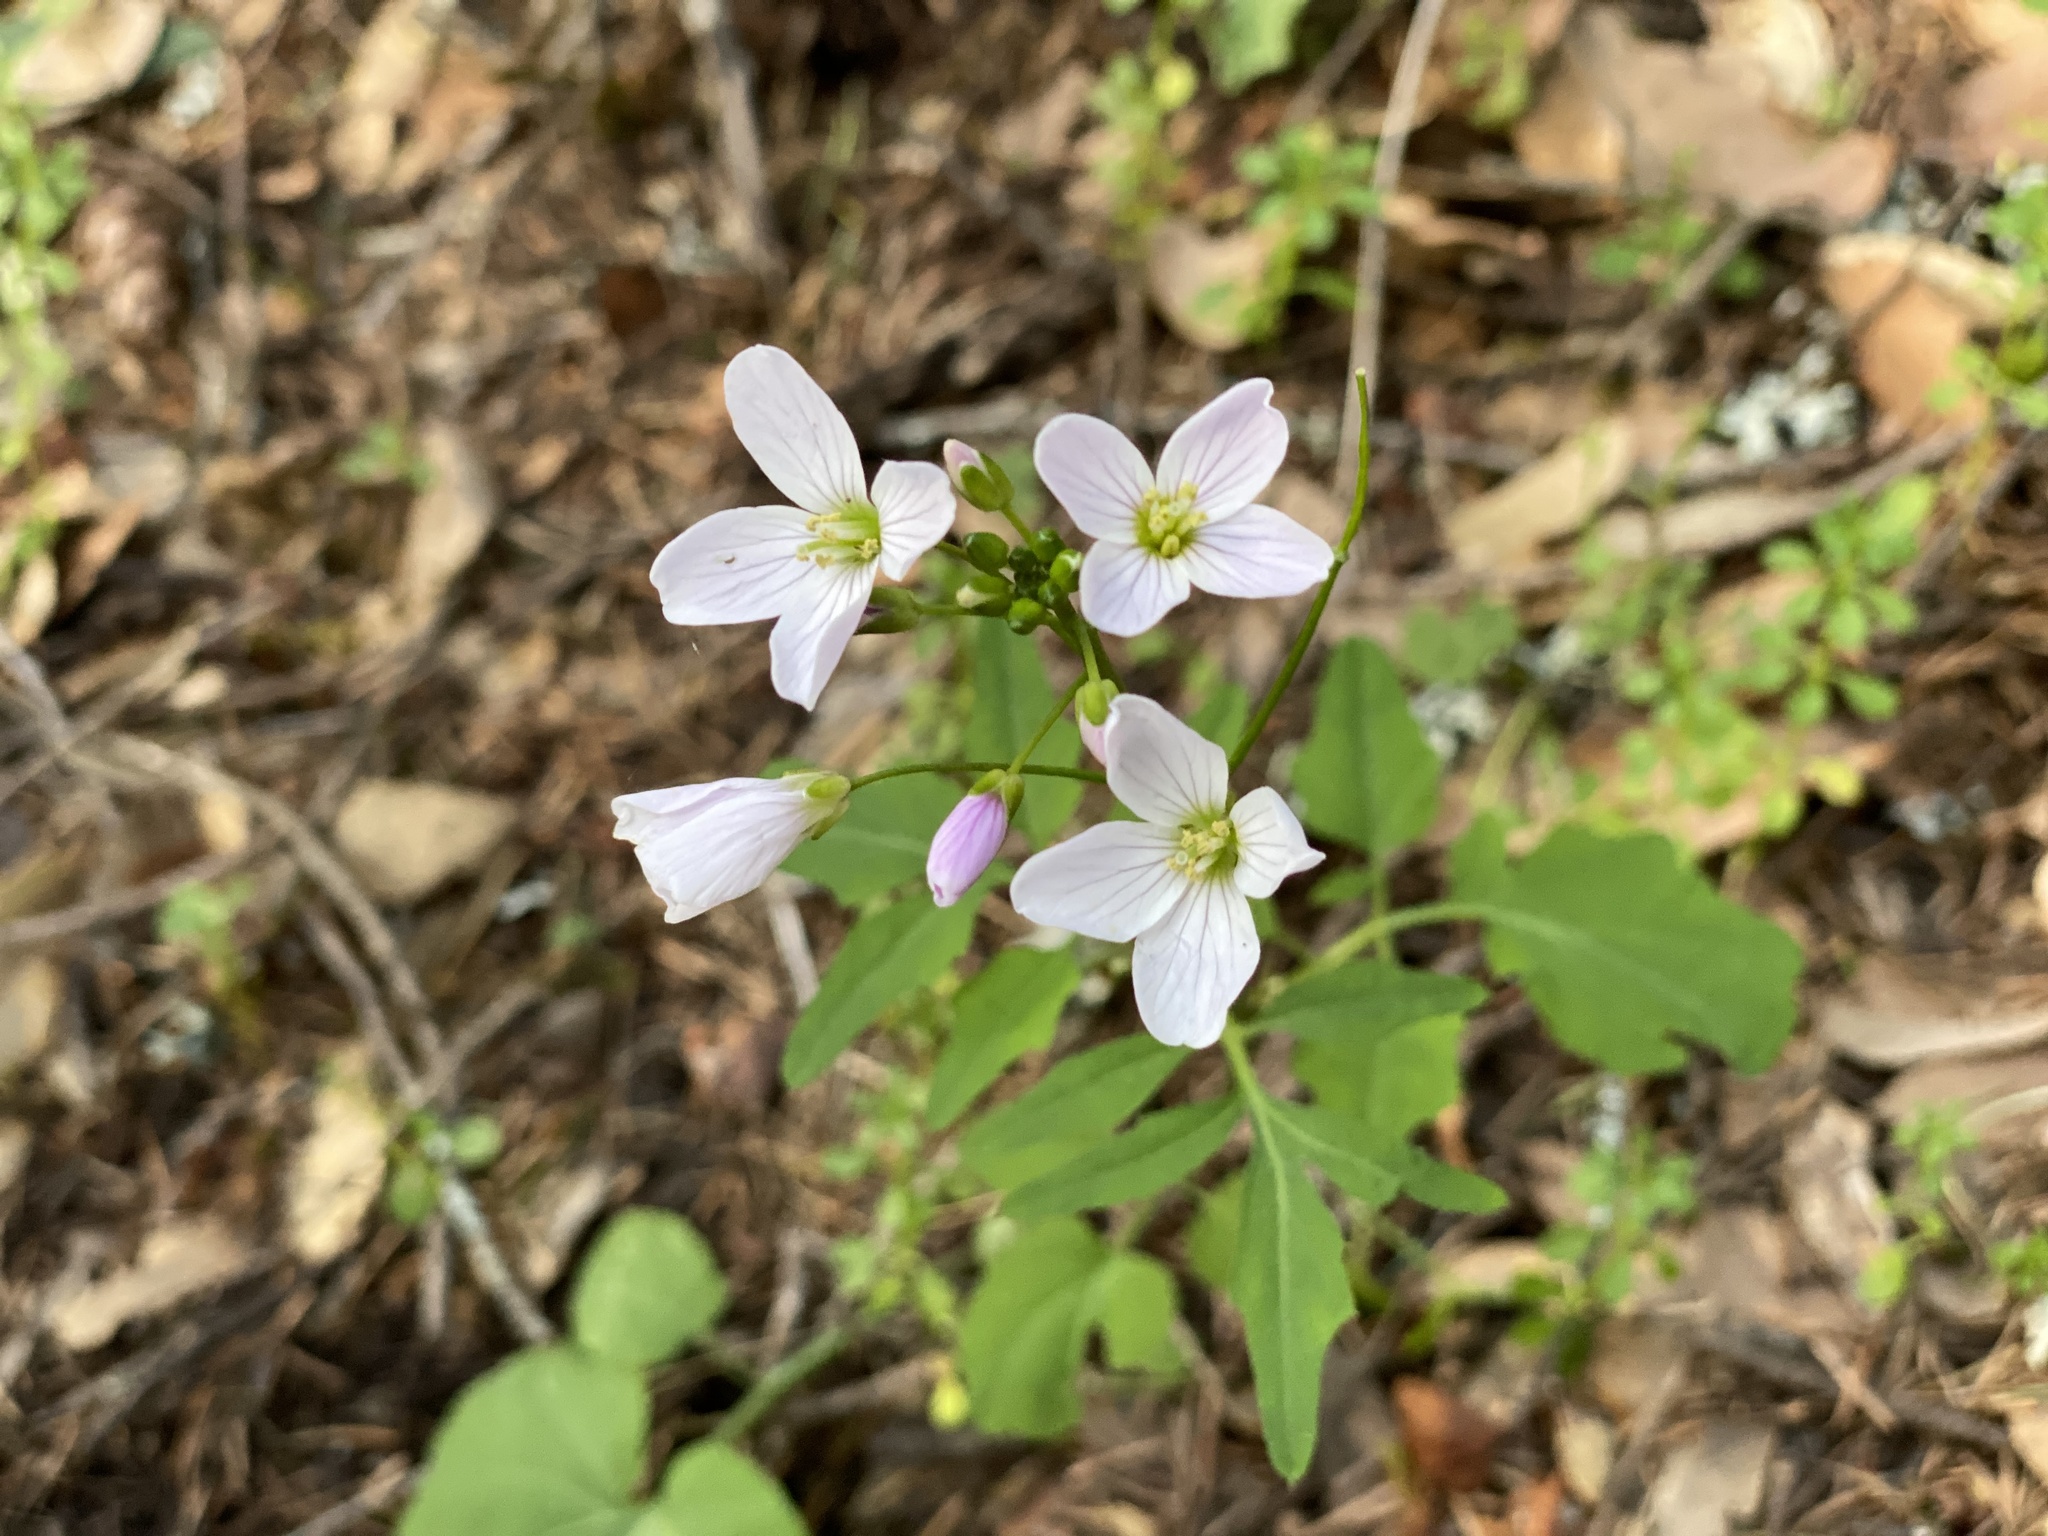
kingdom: Plantae
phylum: Tracheophyta
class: Magnoliopsida
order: Brassicales
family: Brassicaceae
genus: Cardamine
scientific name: Cardamine californica
